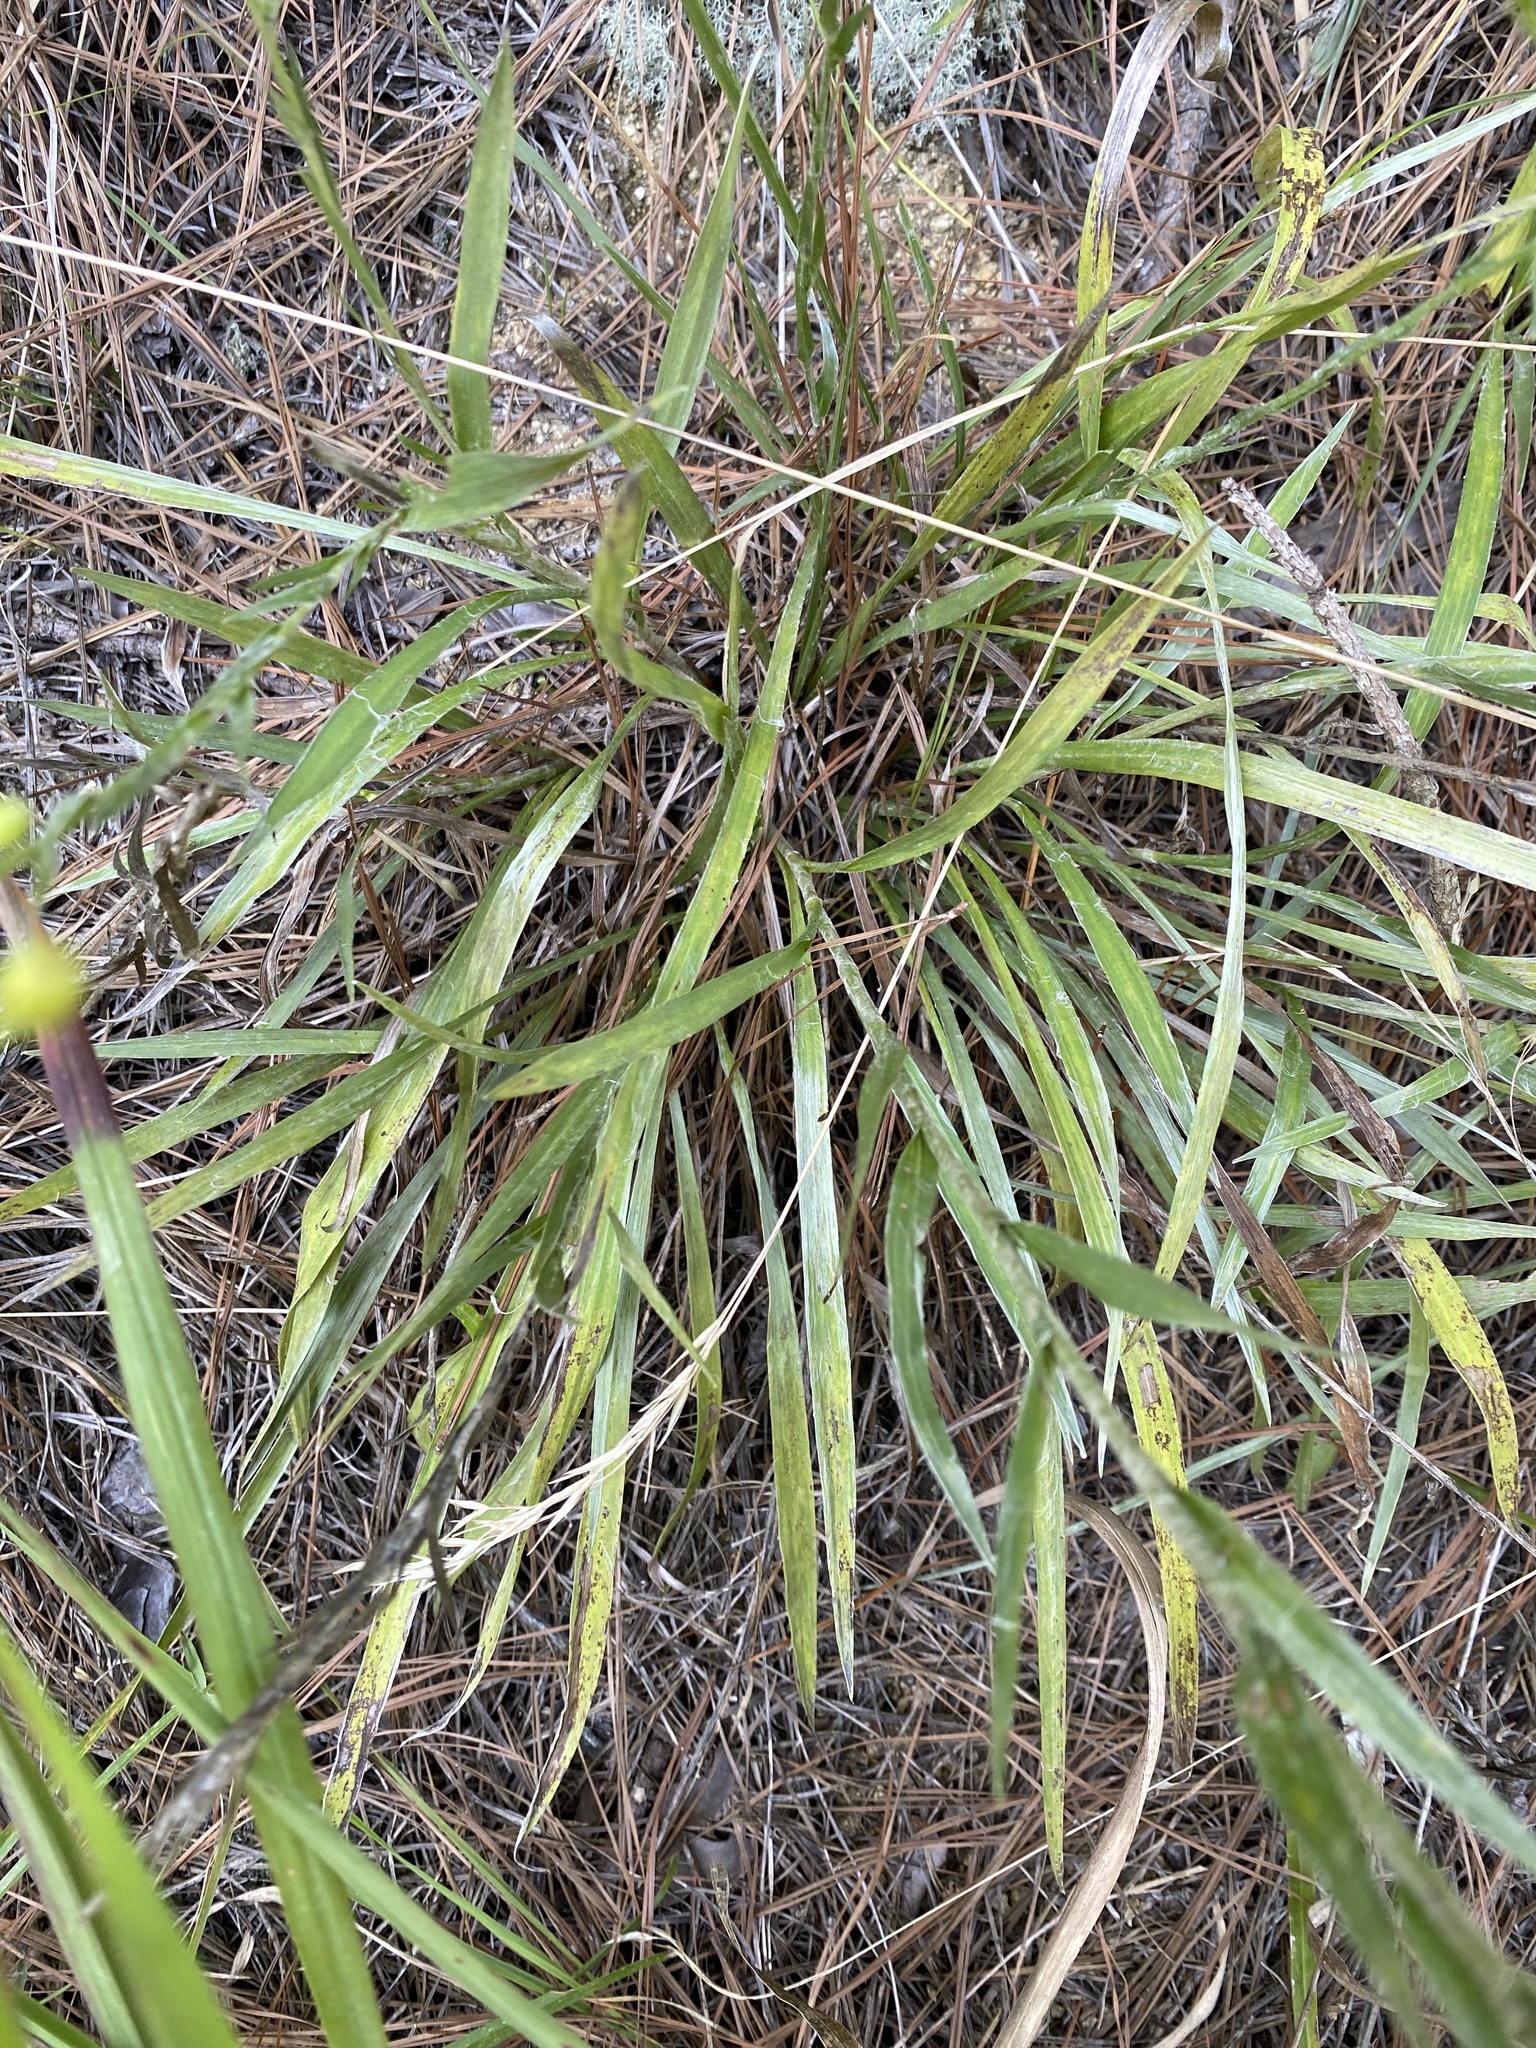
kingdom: Plantae
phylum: Tracheophyta
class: Magnoliopsida
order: Asterales
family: Asteraceae
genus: Pityopsis
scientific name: Pityopsis aspera
